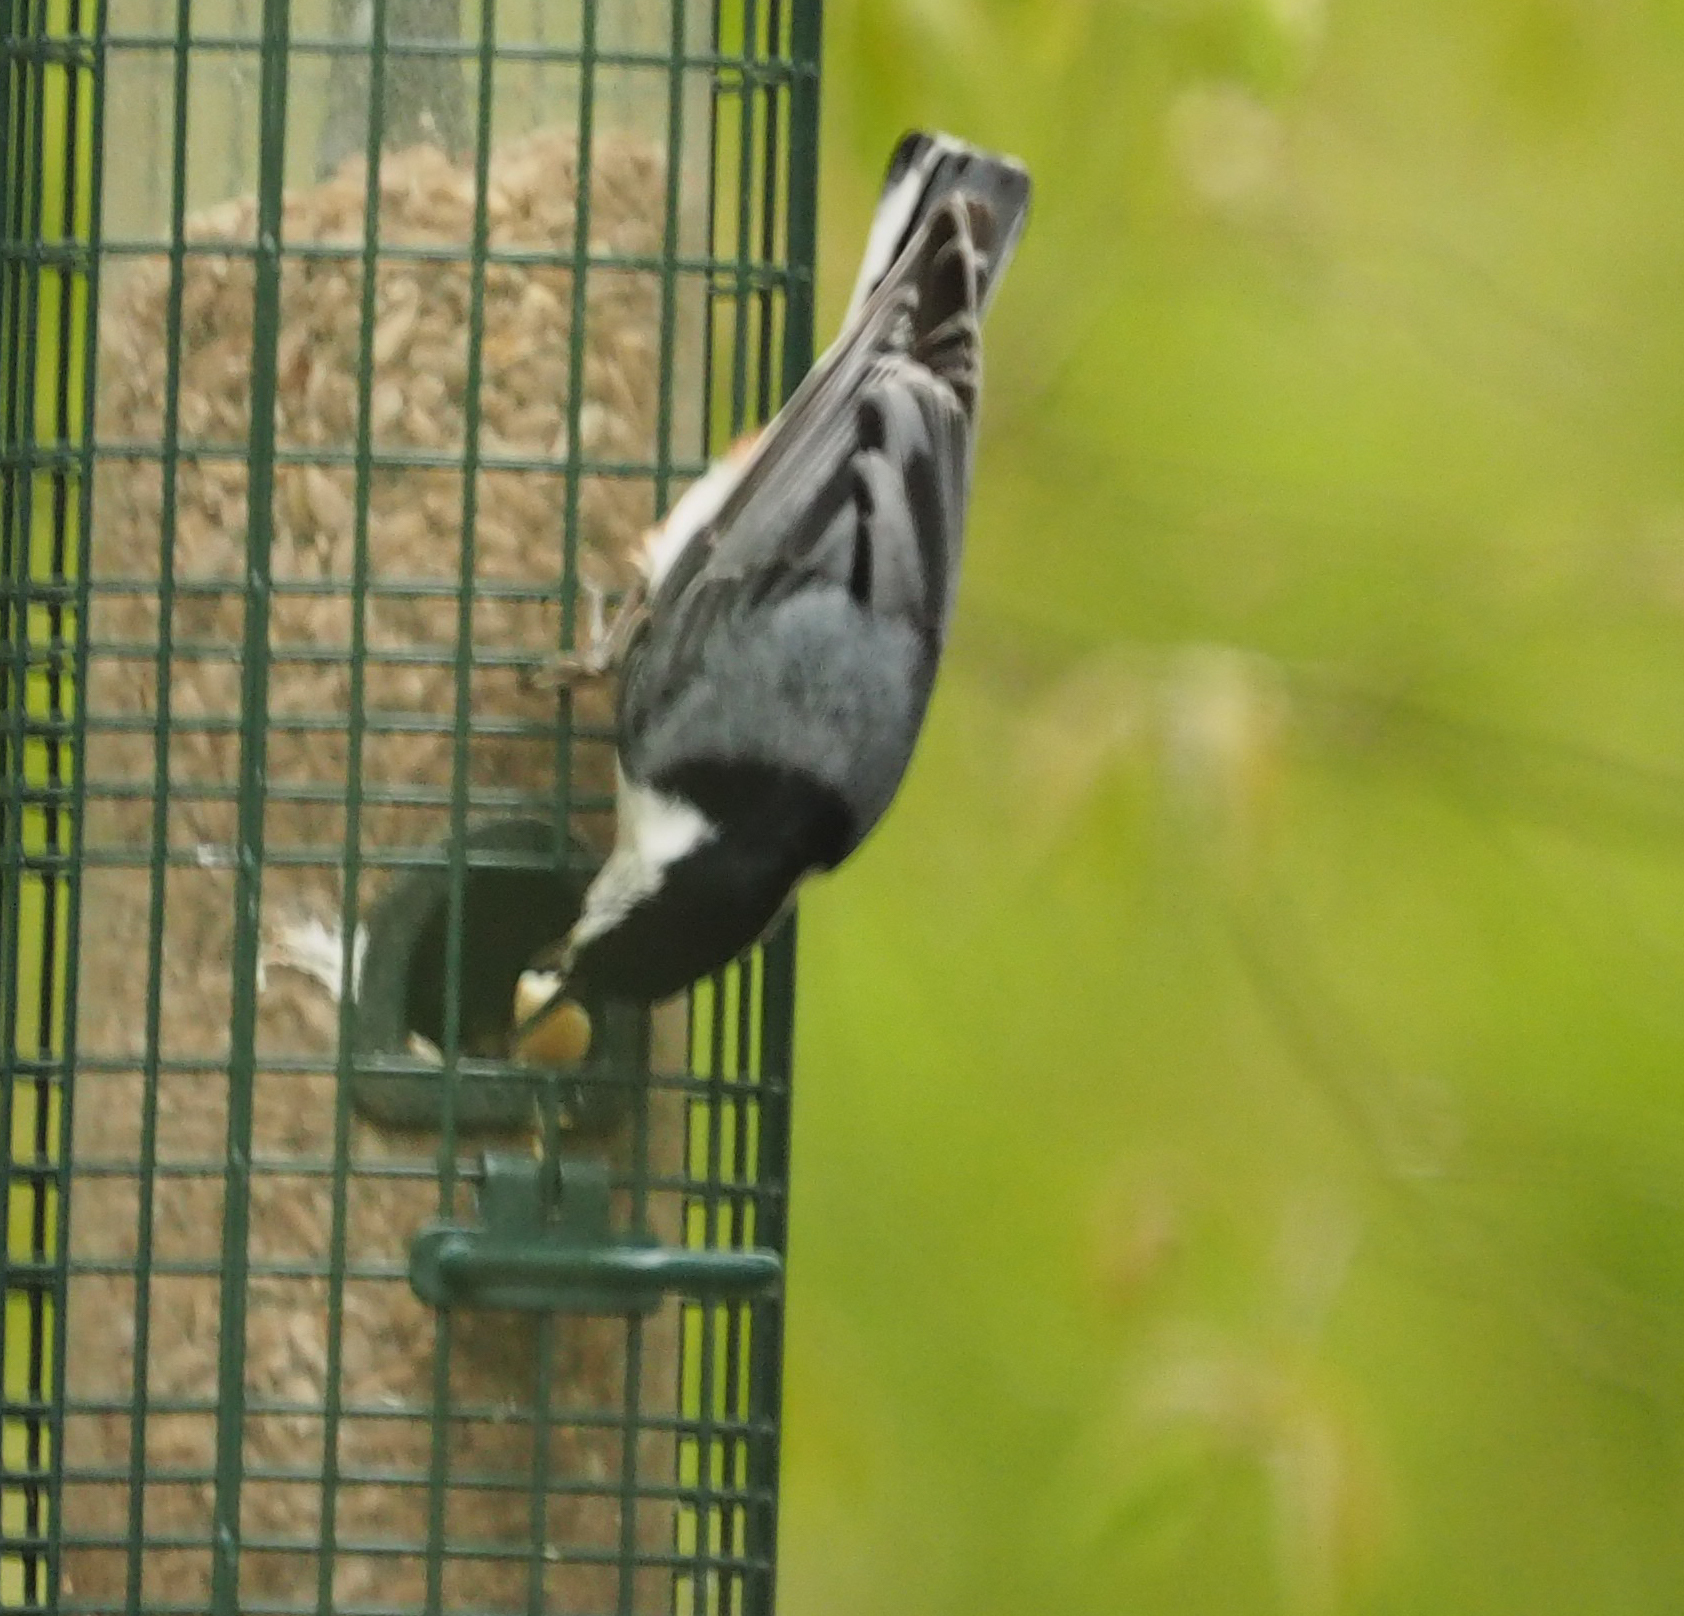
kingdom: Animalia
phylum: Chordata
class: Aves
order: Passeriformes
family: Sittidae
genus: Sitta
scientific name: Sitta carolinensis
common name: White-breasted nuthatch
